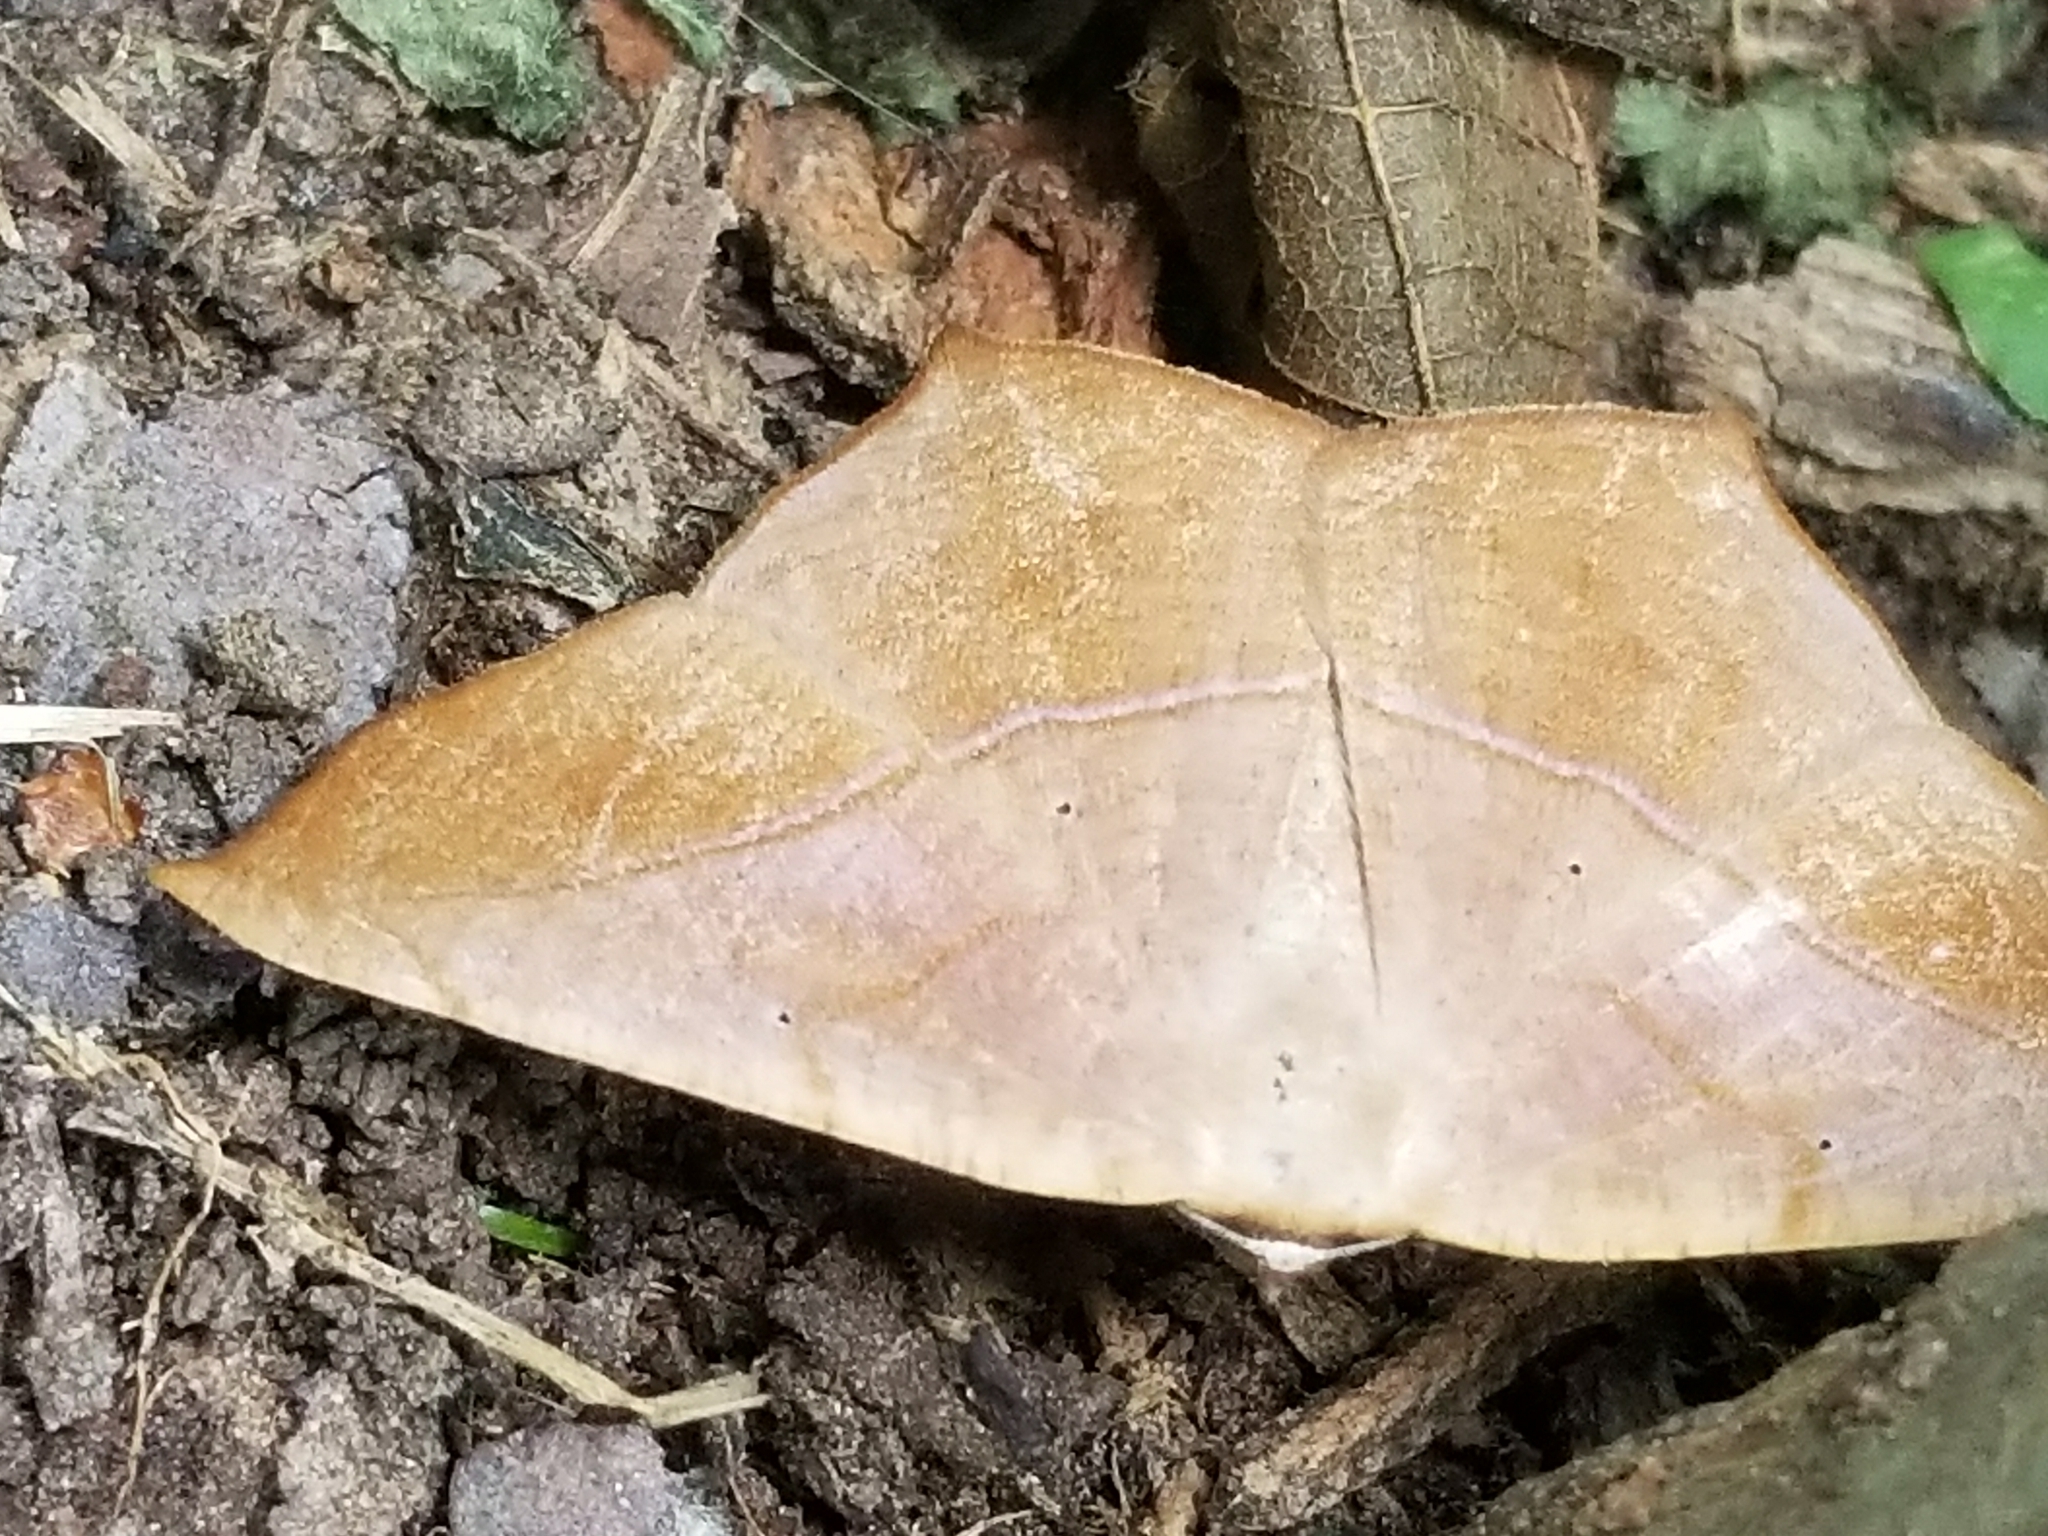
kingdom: Animalia
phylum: Arthropoda
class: Insecta
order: Lepidoptera
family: Geometridae
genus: Prochoerodes
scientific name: Prochoerodes lineola
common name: Large maple spanworm
